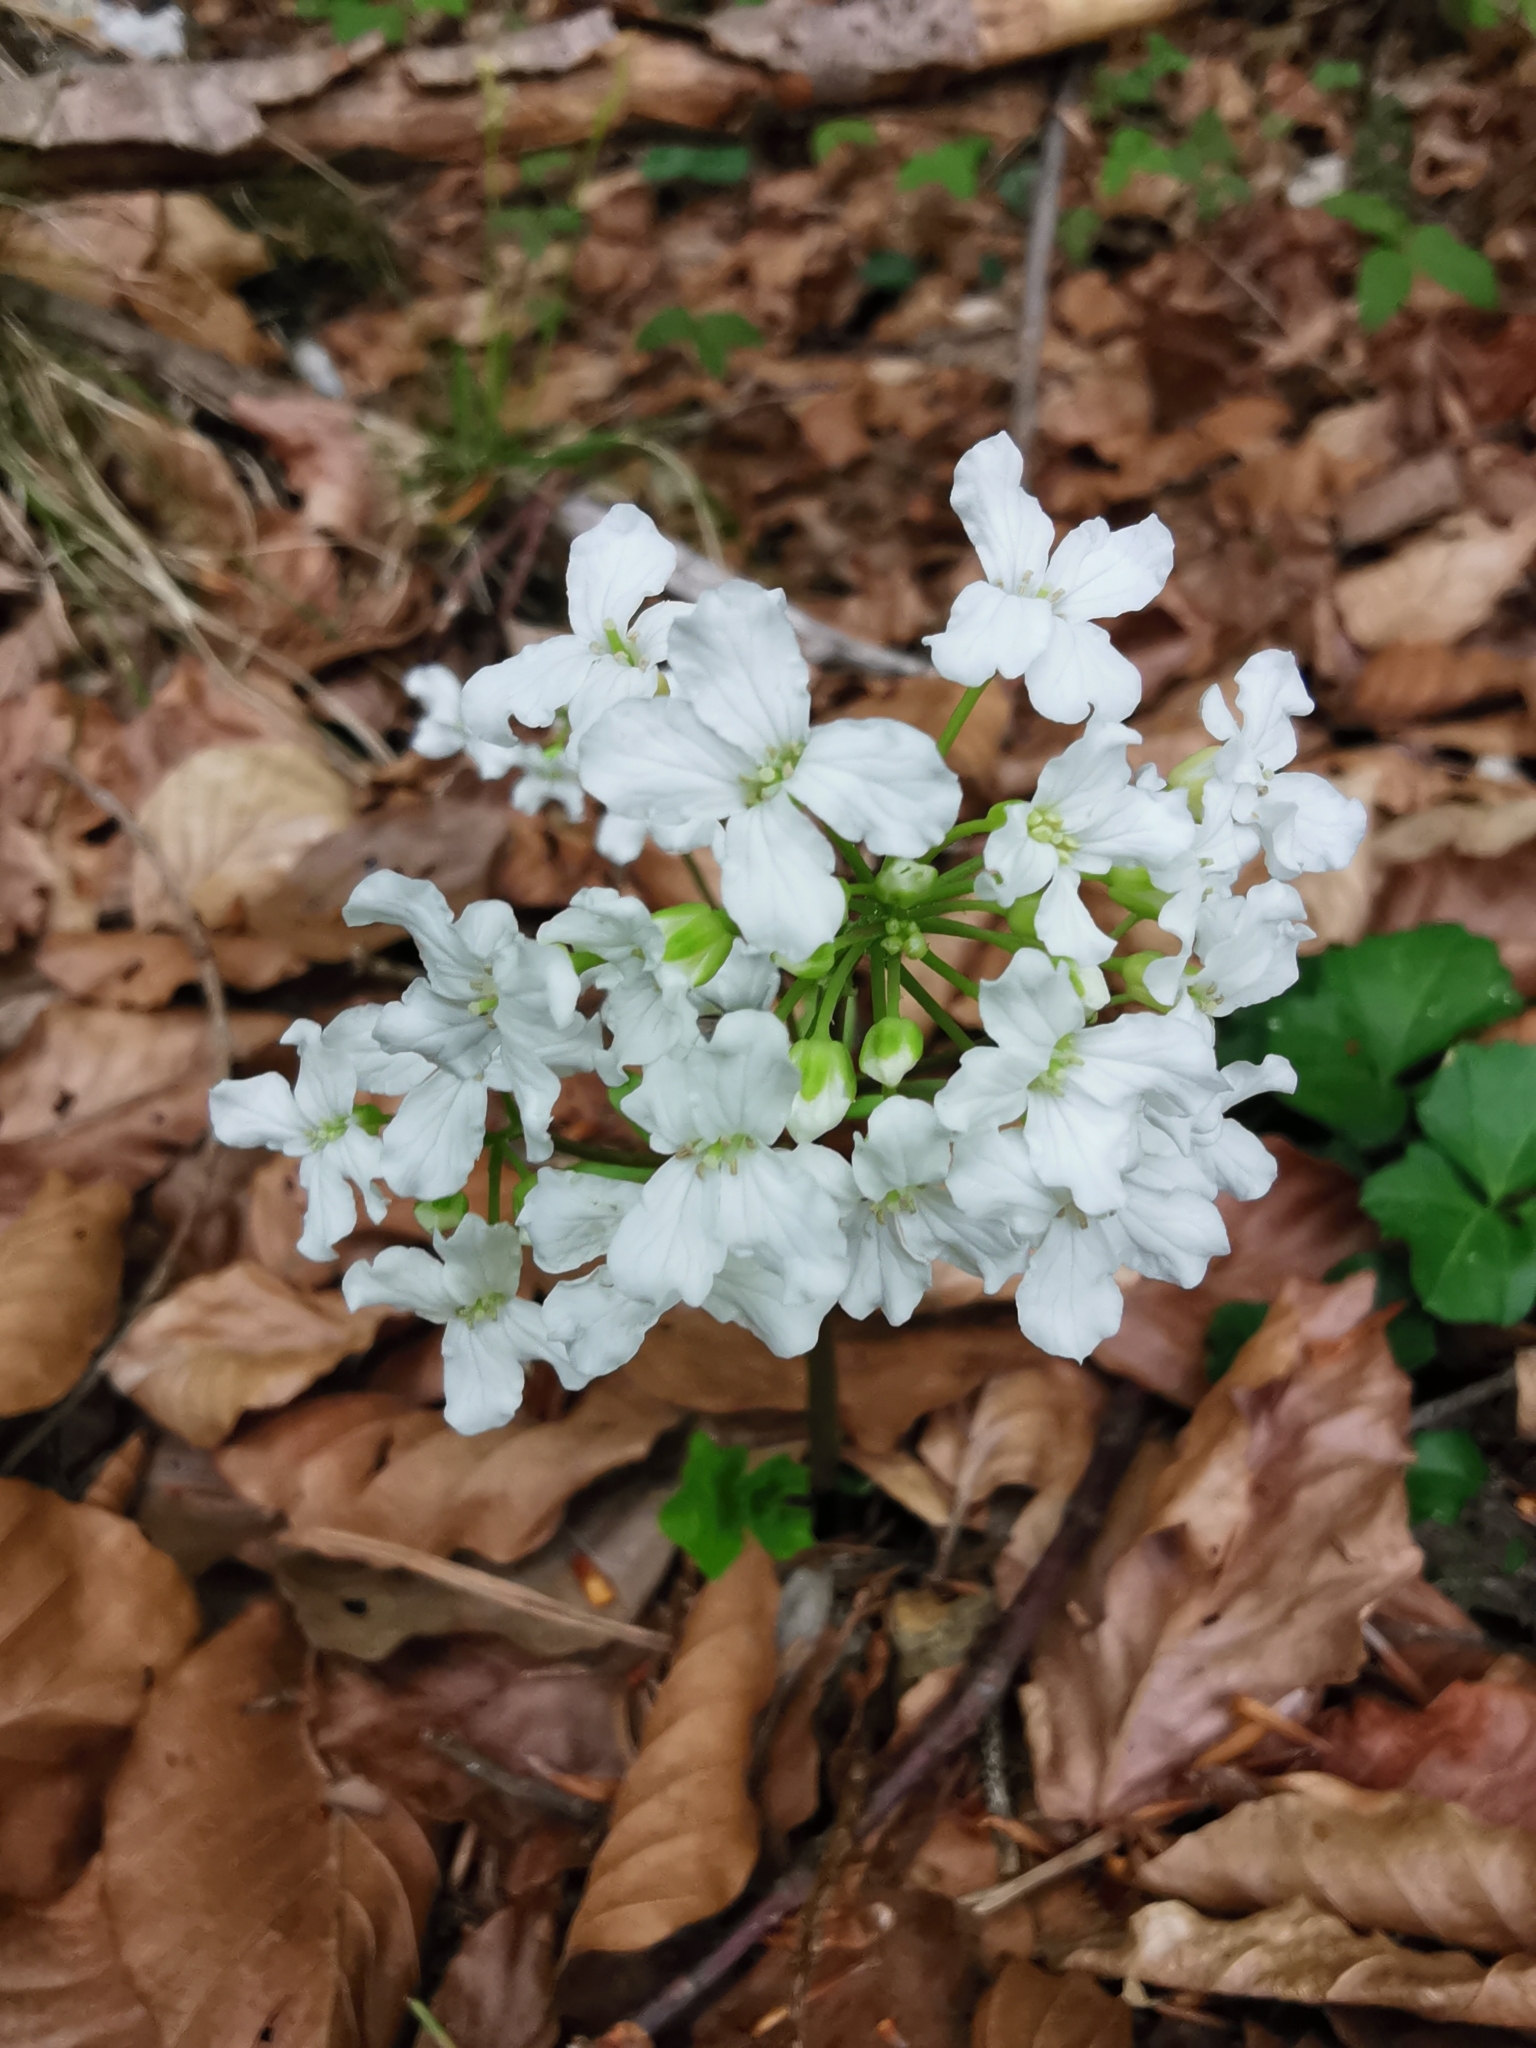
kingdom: Plantae
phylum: Tracheophyta
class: Magnoliopsida
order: Brassicales
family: Brassicaceae
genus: Cardamine
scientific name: Cardamine trifolia
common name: Trefoil cress
